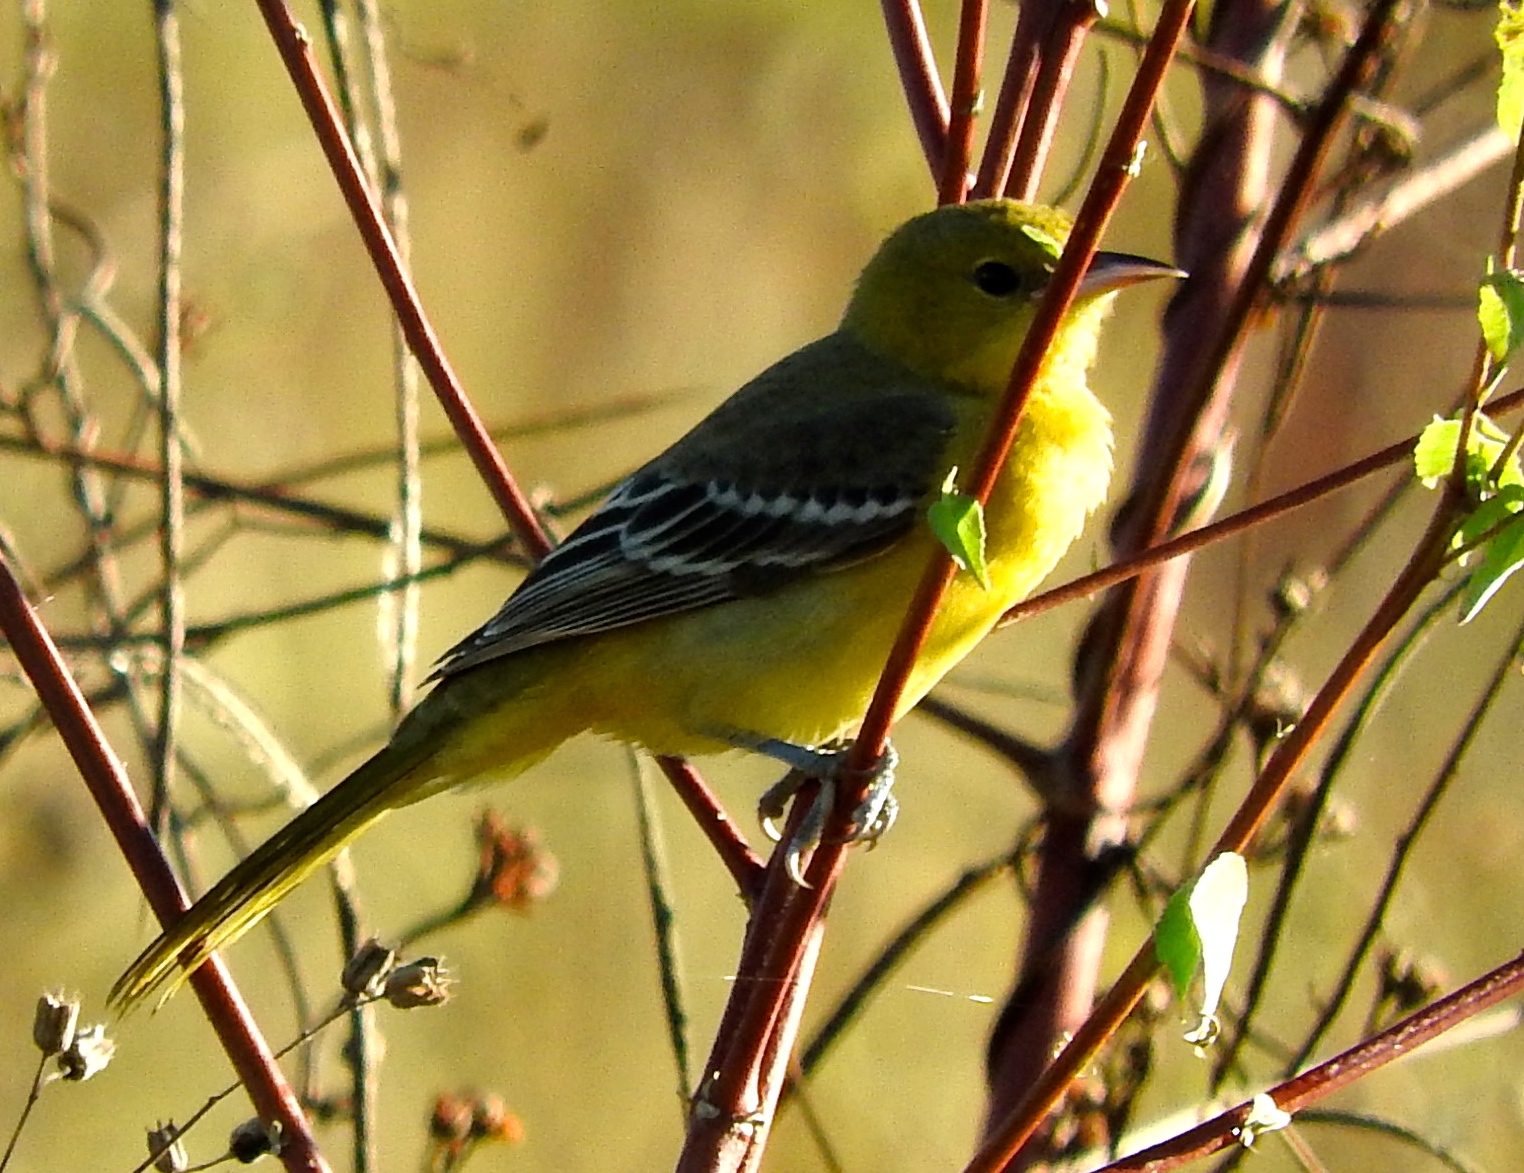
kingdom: Animalia
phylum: Chordata
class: Aves
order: Passeriformes
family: Icteridae
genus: Icterus
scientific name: Icterus spurius
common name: Orchard oriole
